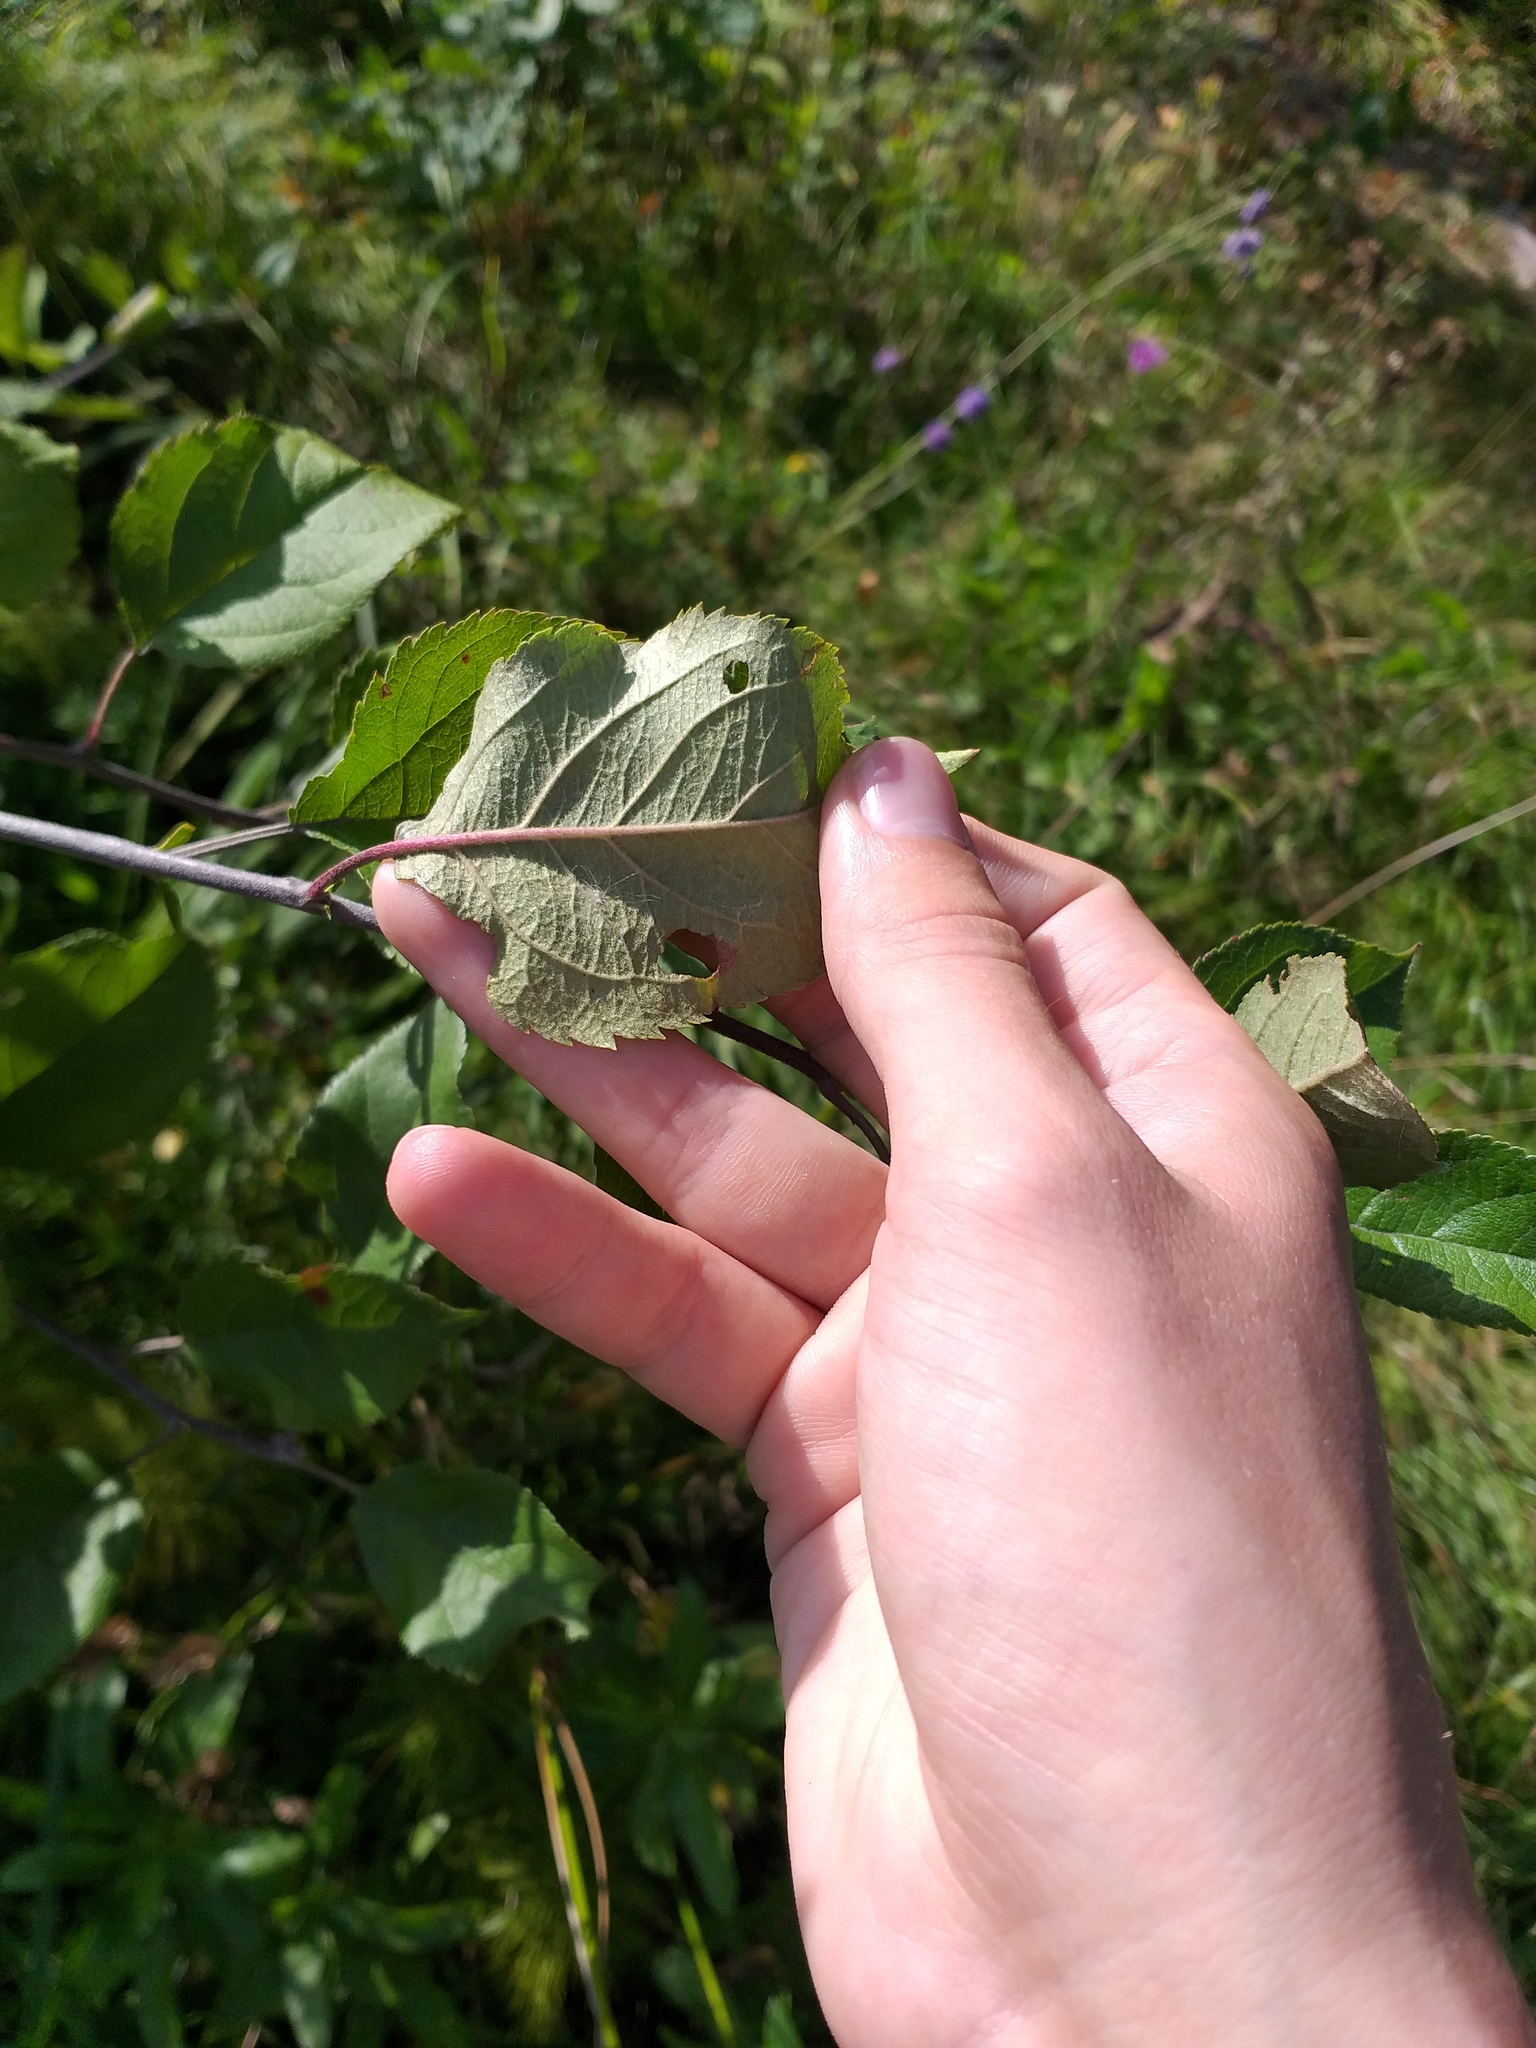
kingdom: Plantae
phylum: Tracheophyta
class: Magnoliopsida
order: Rosales
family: Rosaceae
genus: Malus
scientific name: Malus domestica
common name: Apple
